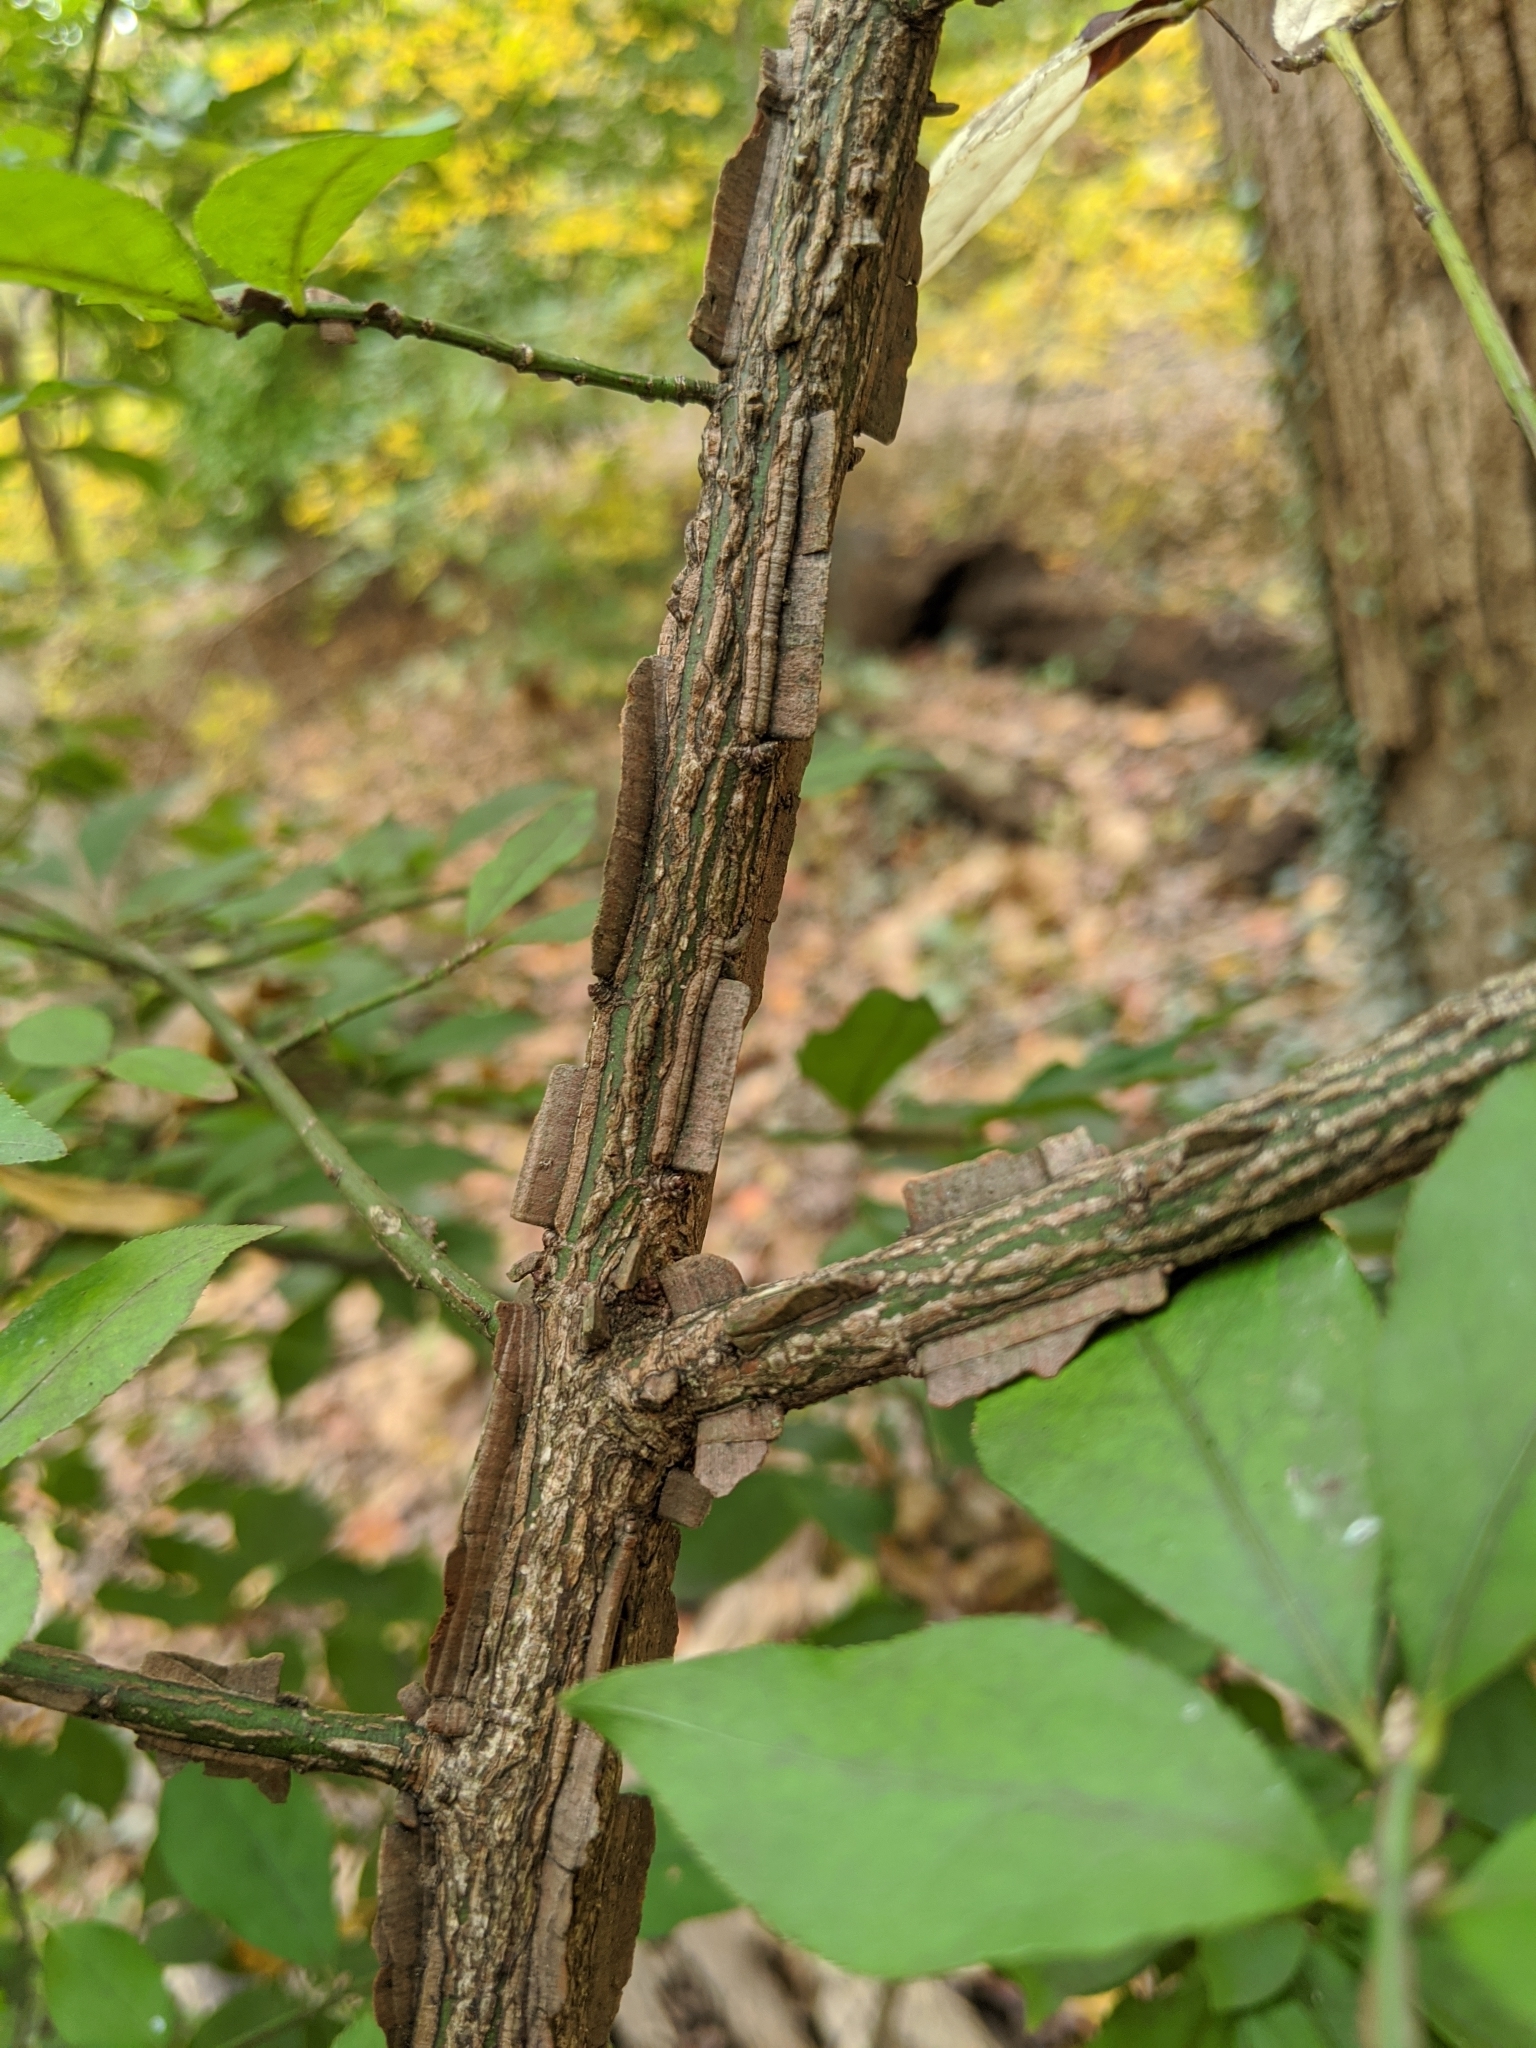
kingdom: Plantae
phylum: Tracheophyta
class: Magnoliopsida
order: Celastrales
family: Celastraceae
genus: Euonymus
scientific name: Euonymus alatus
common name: Winged euonymus
